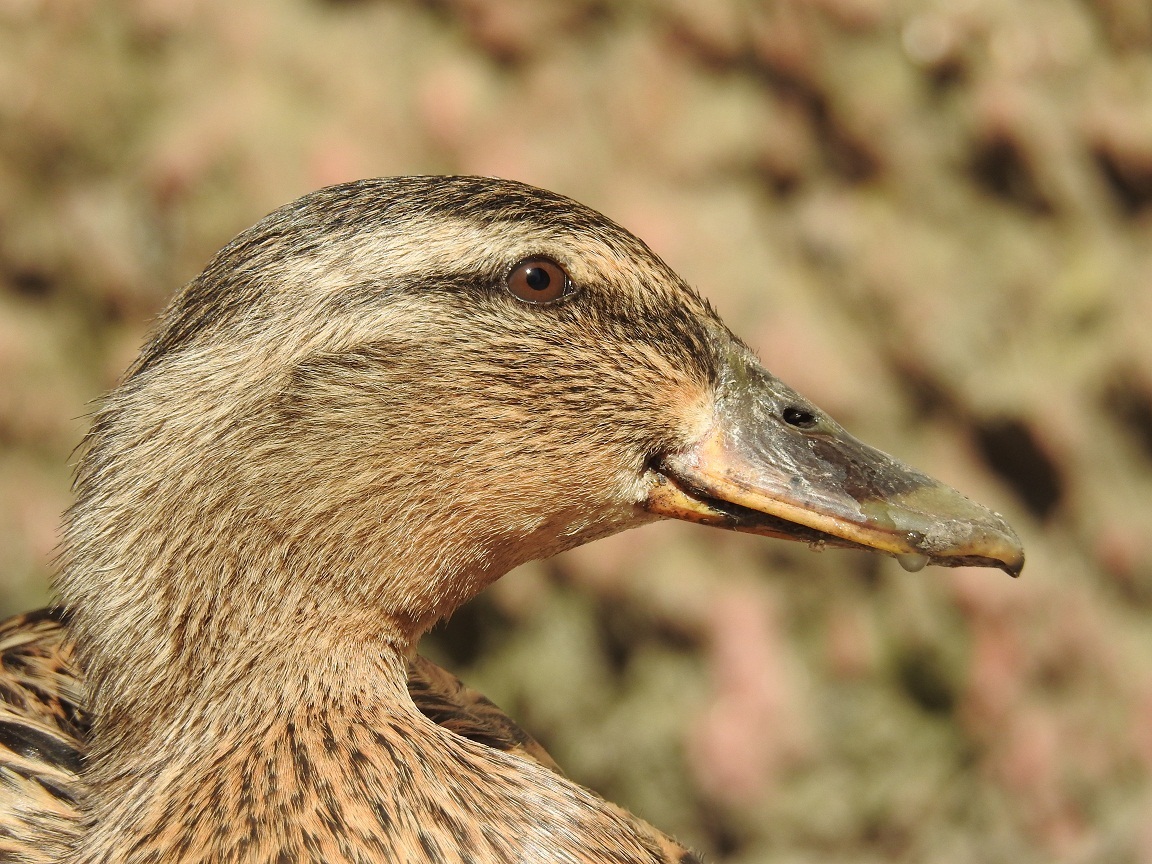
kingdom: Animalia
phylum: Chordata
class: Aves
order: Anseriformes
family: Anatidae
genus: Anas
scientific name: Anas platyrhynchos
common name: Mallard
